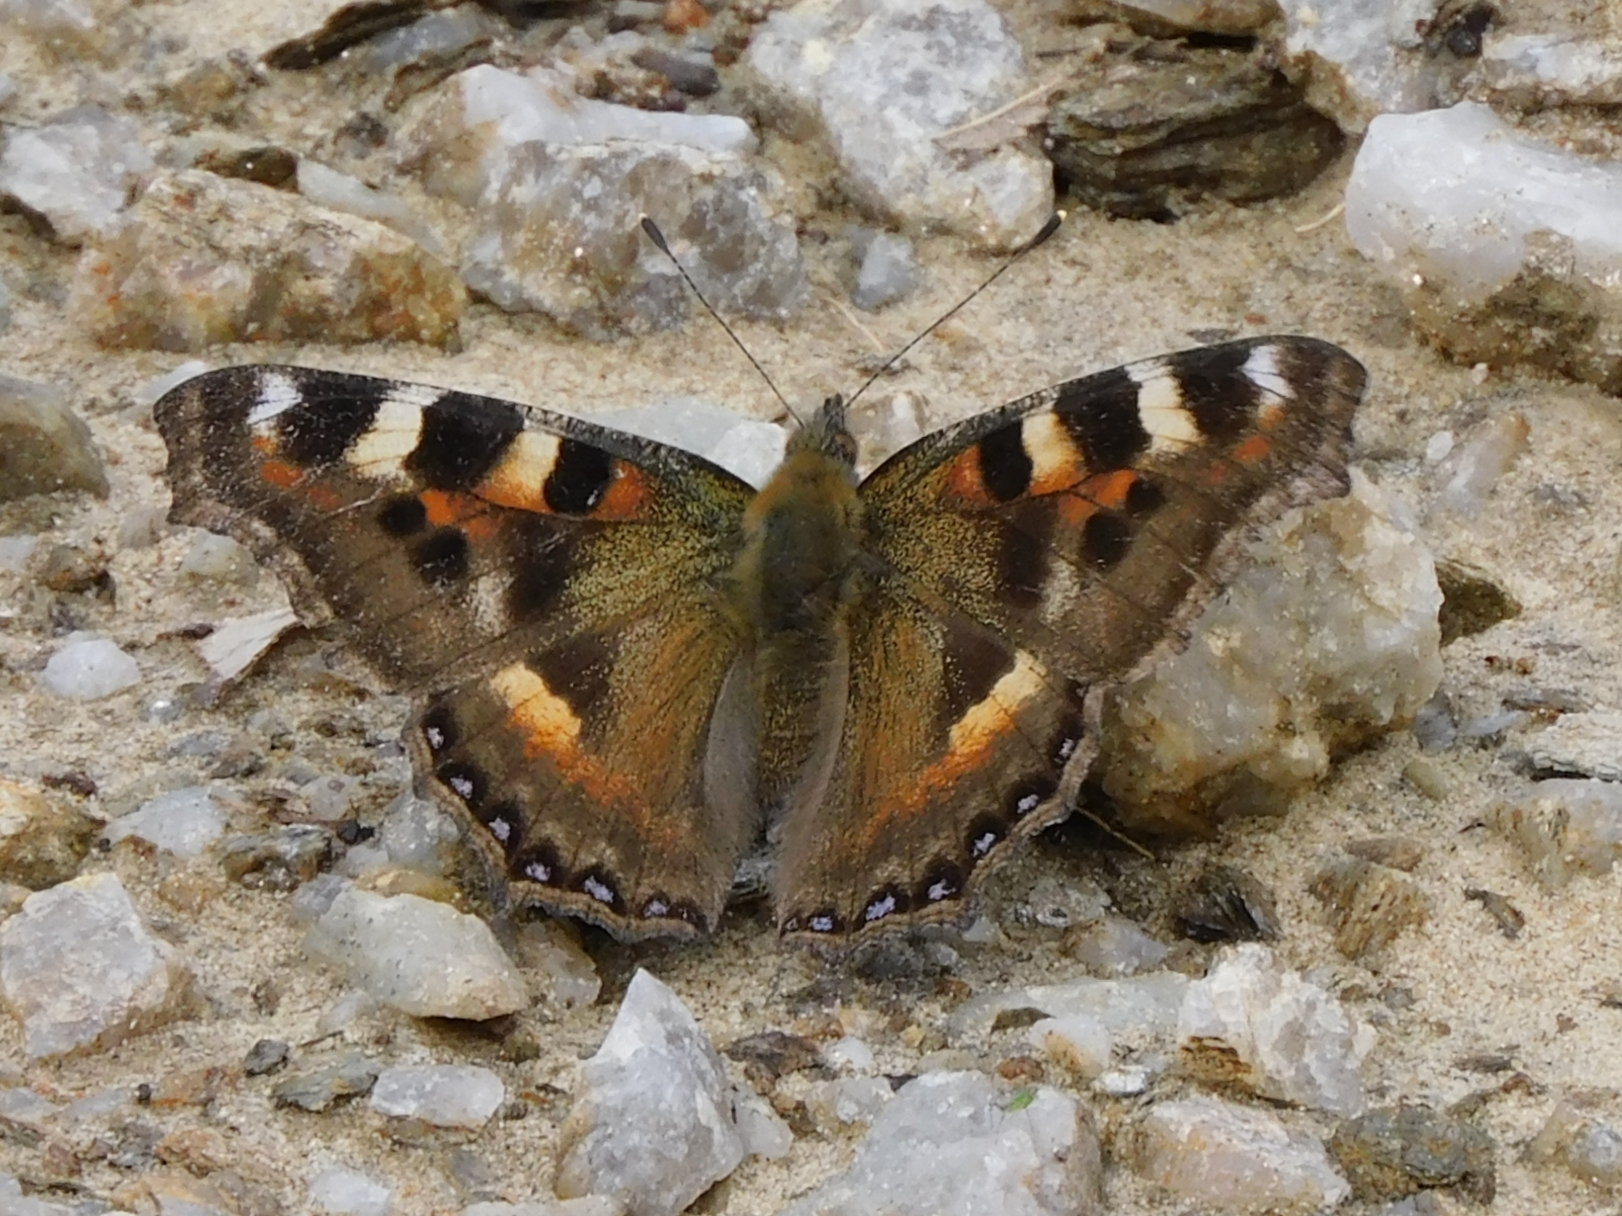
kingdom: Animalia
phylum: Arthropoda
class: Insecta
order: Lepidoptera
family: Nymphalidae
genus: Aglais
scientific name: Aglais caschmirensis
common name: Indian tortoiseshell
